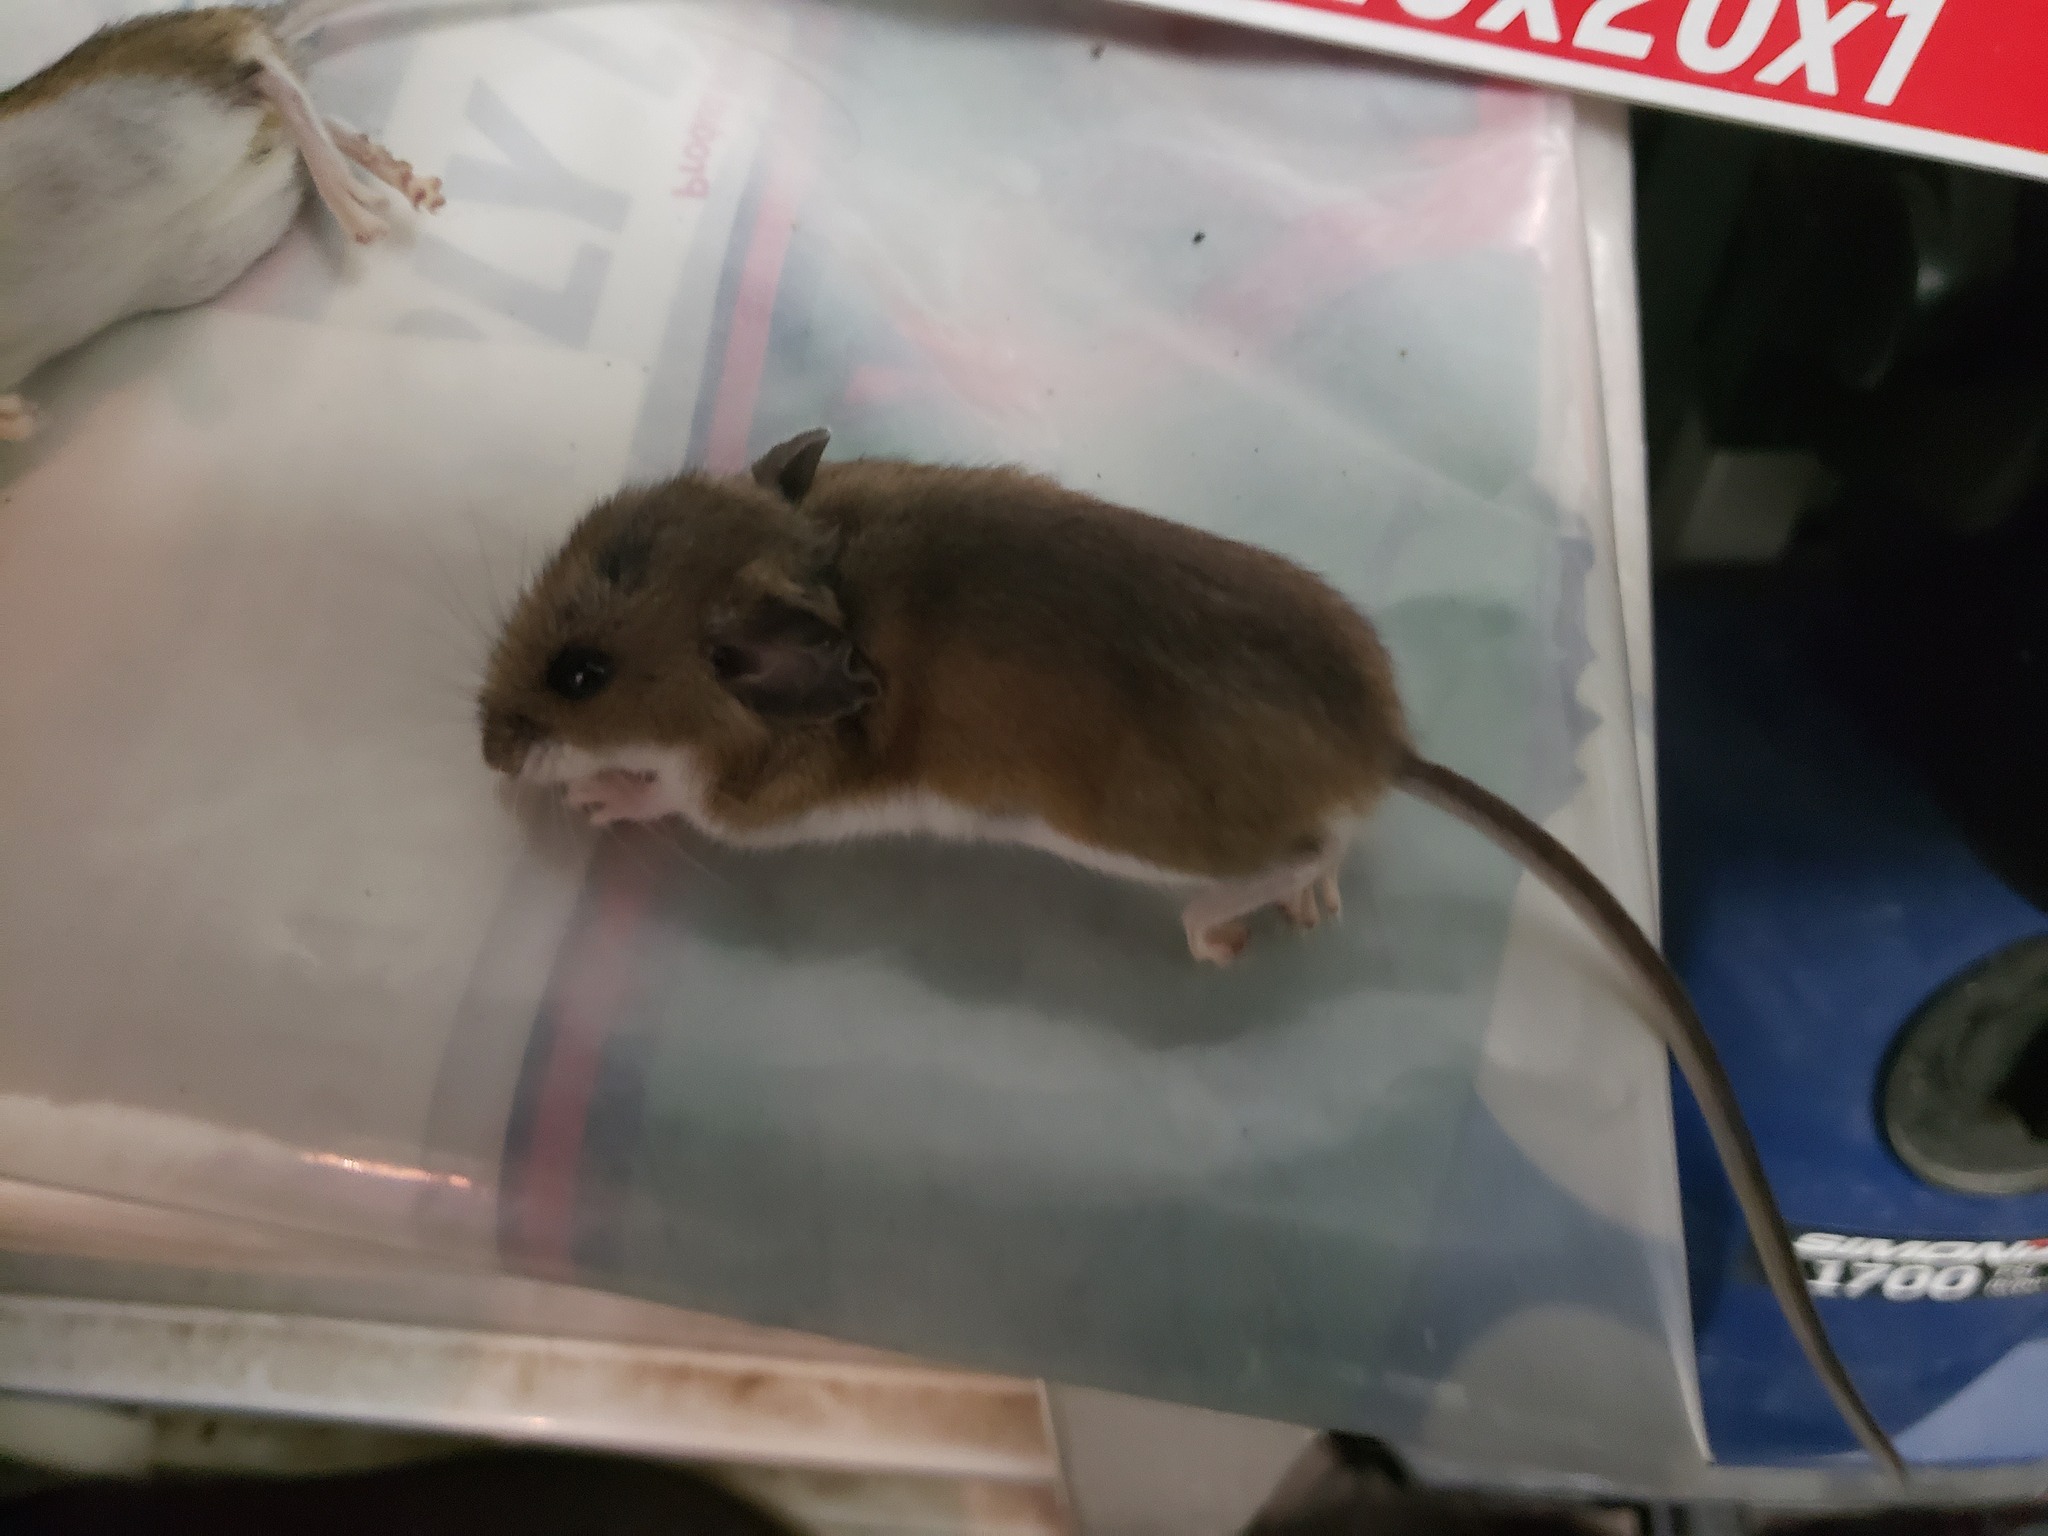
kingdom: Animalia
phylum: Chordata
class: Mammalia
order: Rodentia
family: Cricetidae
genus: Peromyscus
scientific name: Peromyscus maniculatus
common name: Deer mouse
